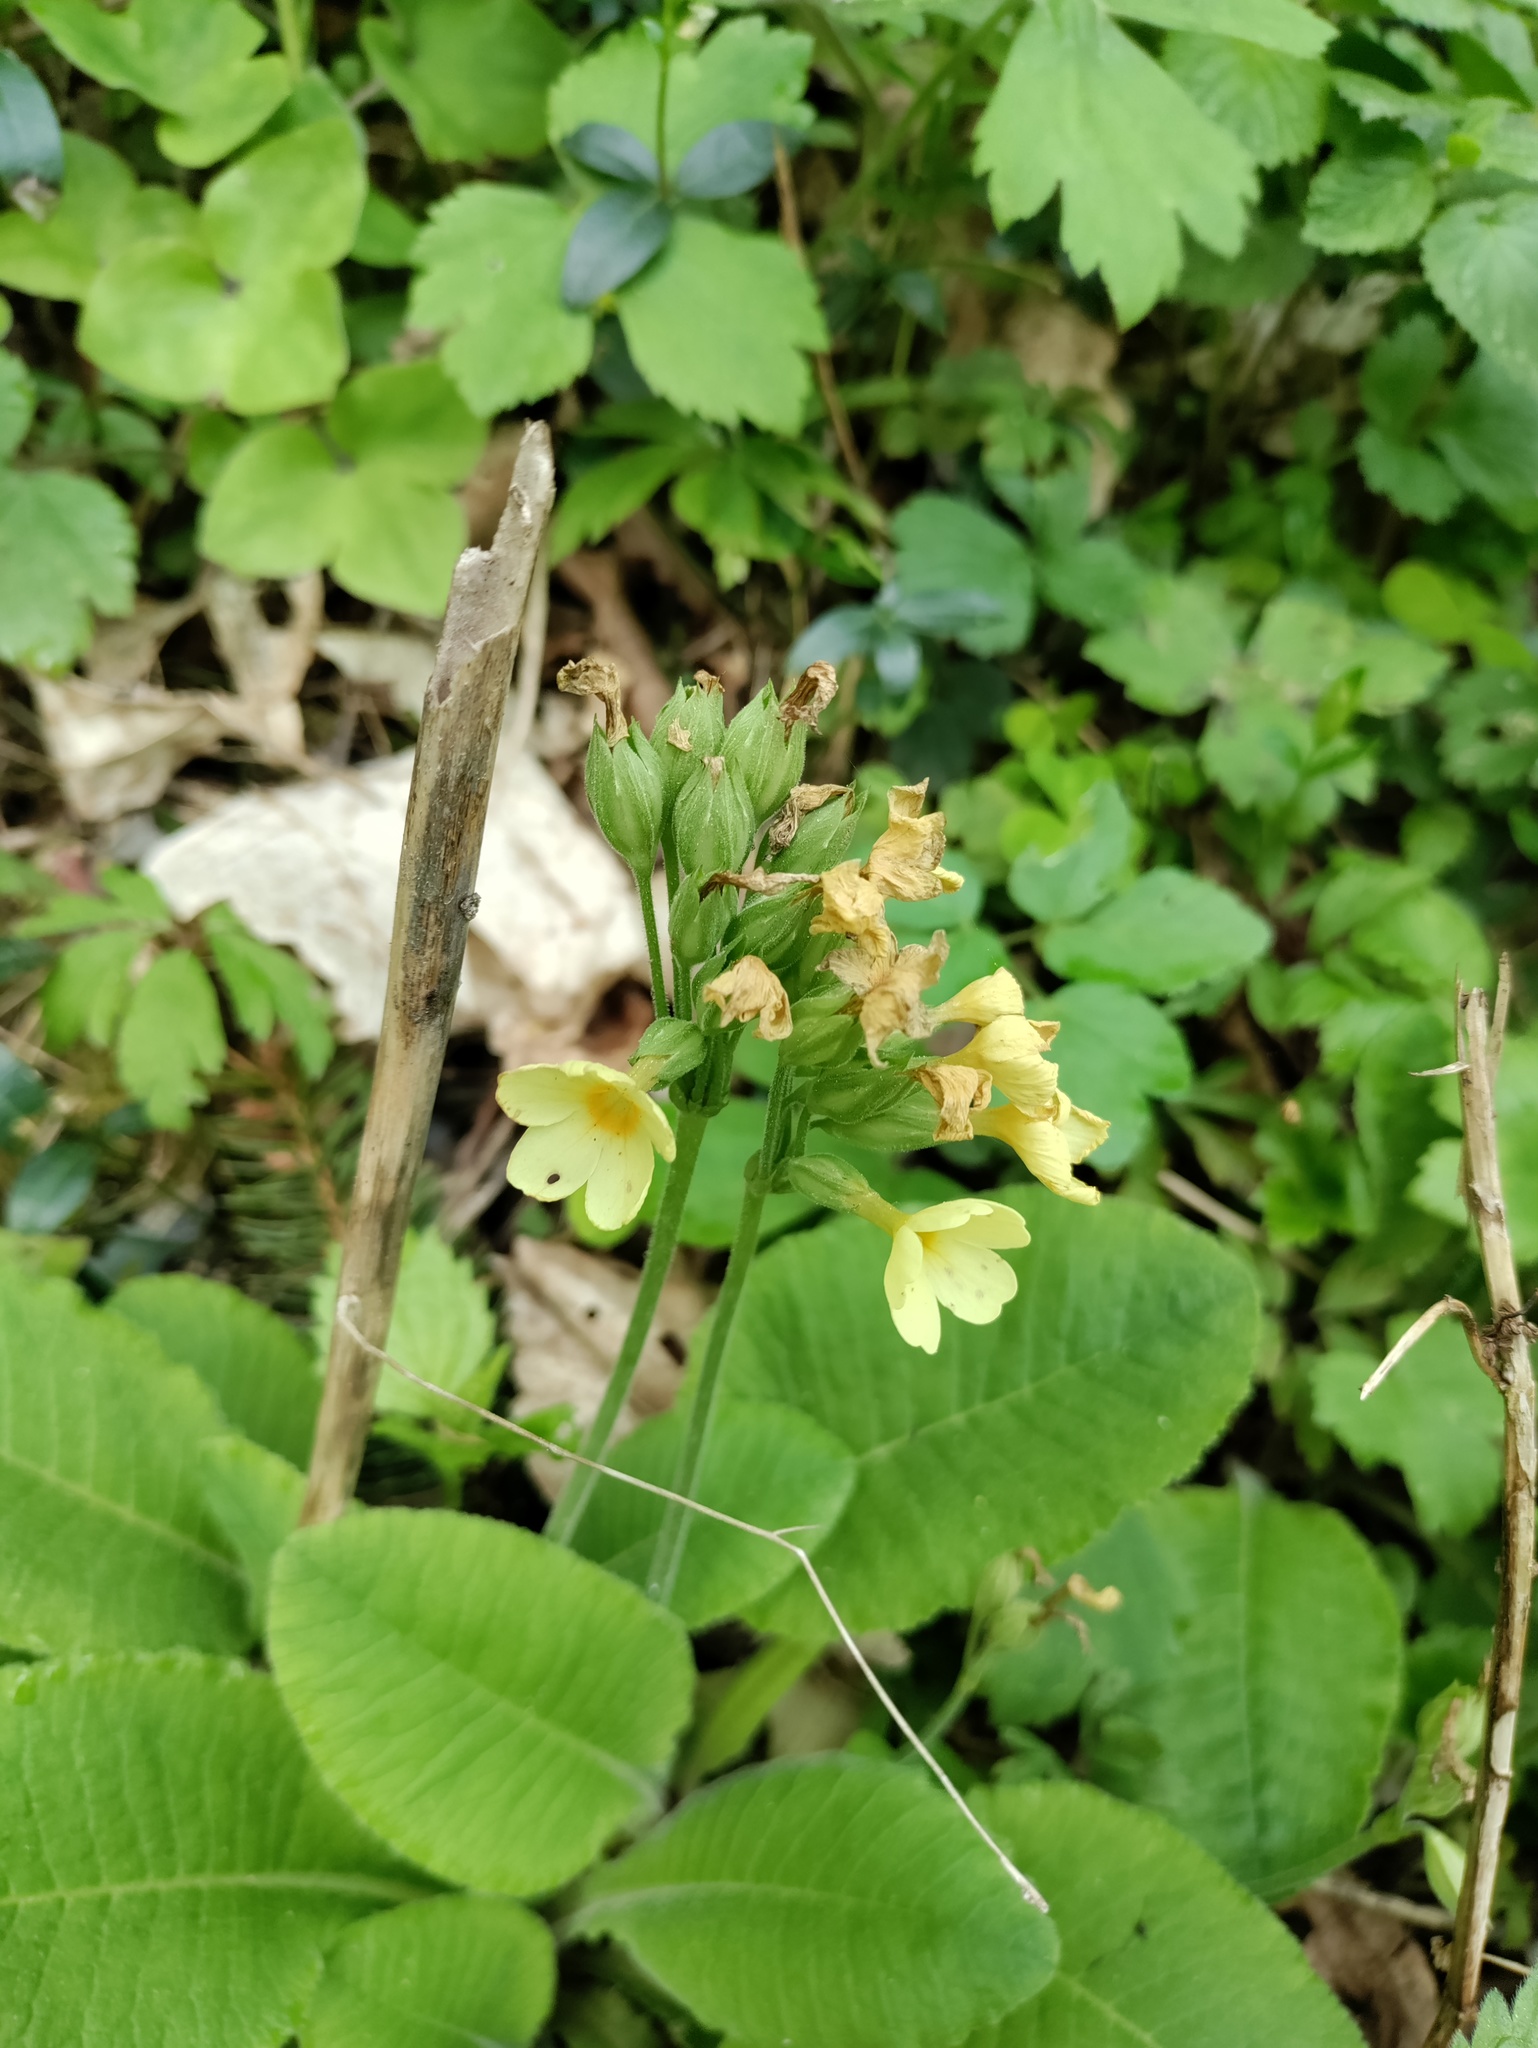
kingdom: Plantae
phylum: Tracheophyta
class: Magnoliopsida
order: Ericales
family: Primulaceae
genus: Primula
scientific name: Primula elatior
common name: Oxlip
